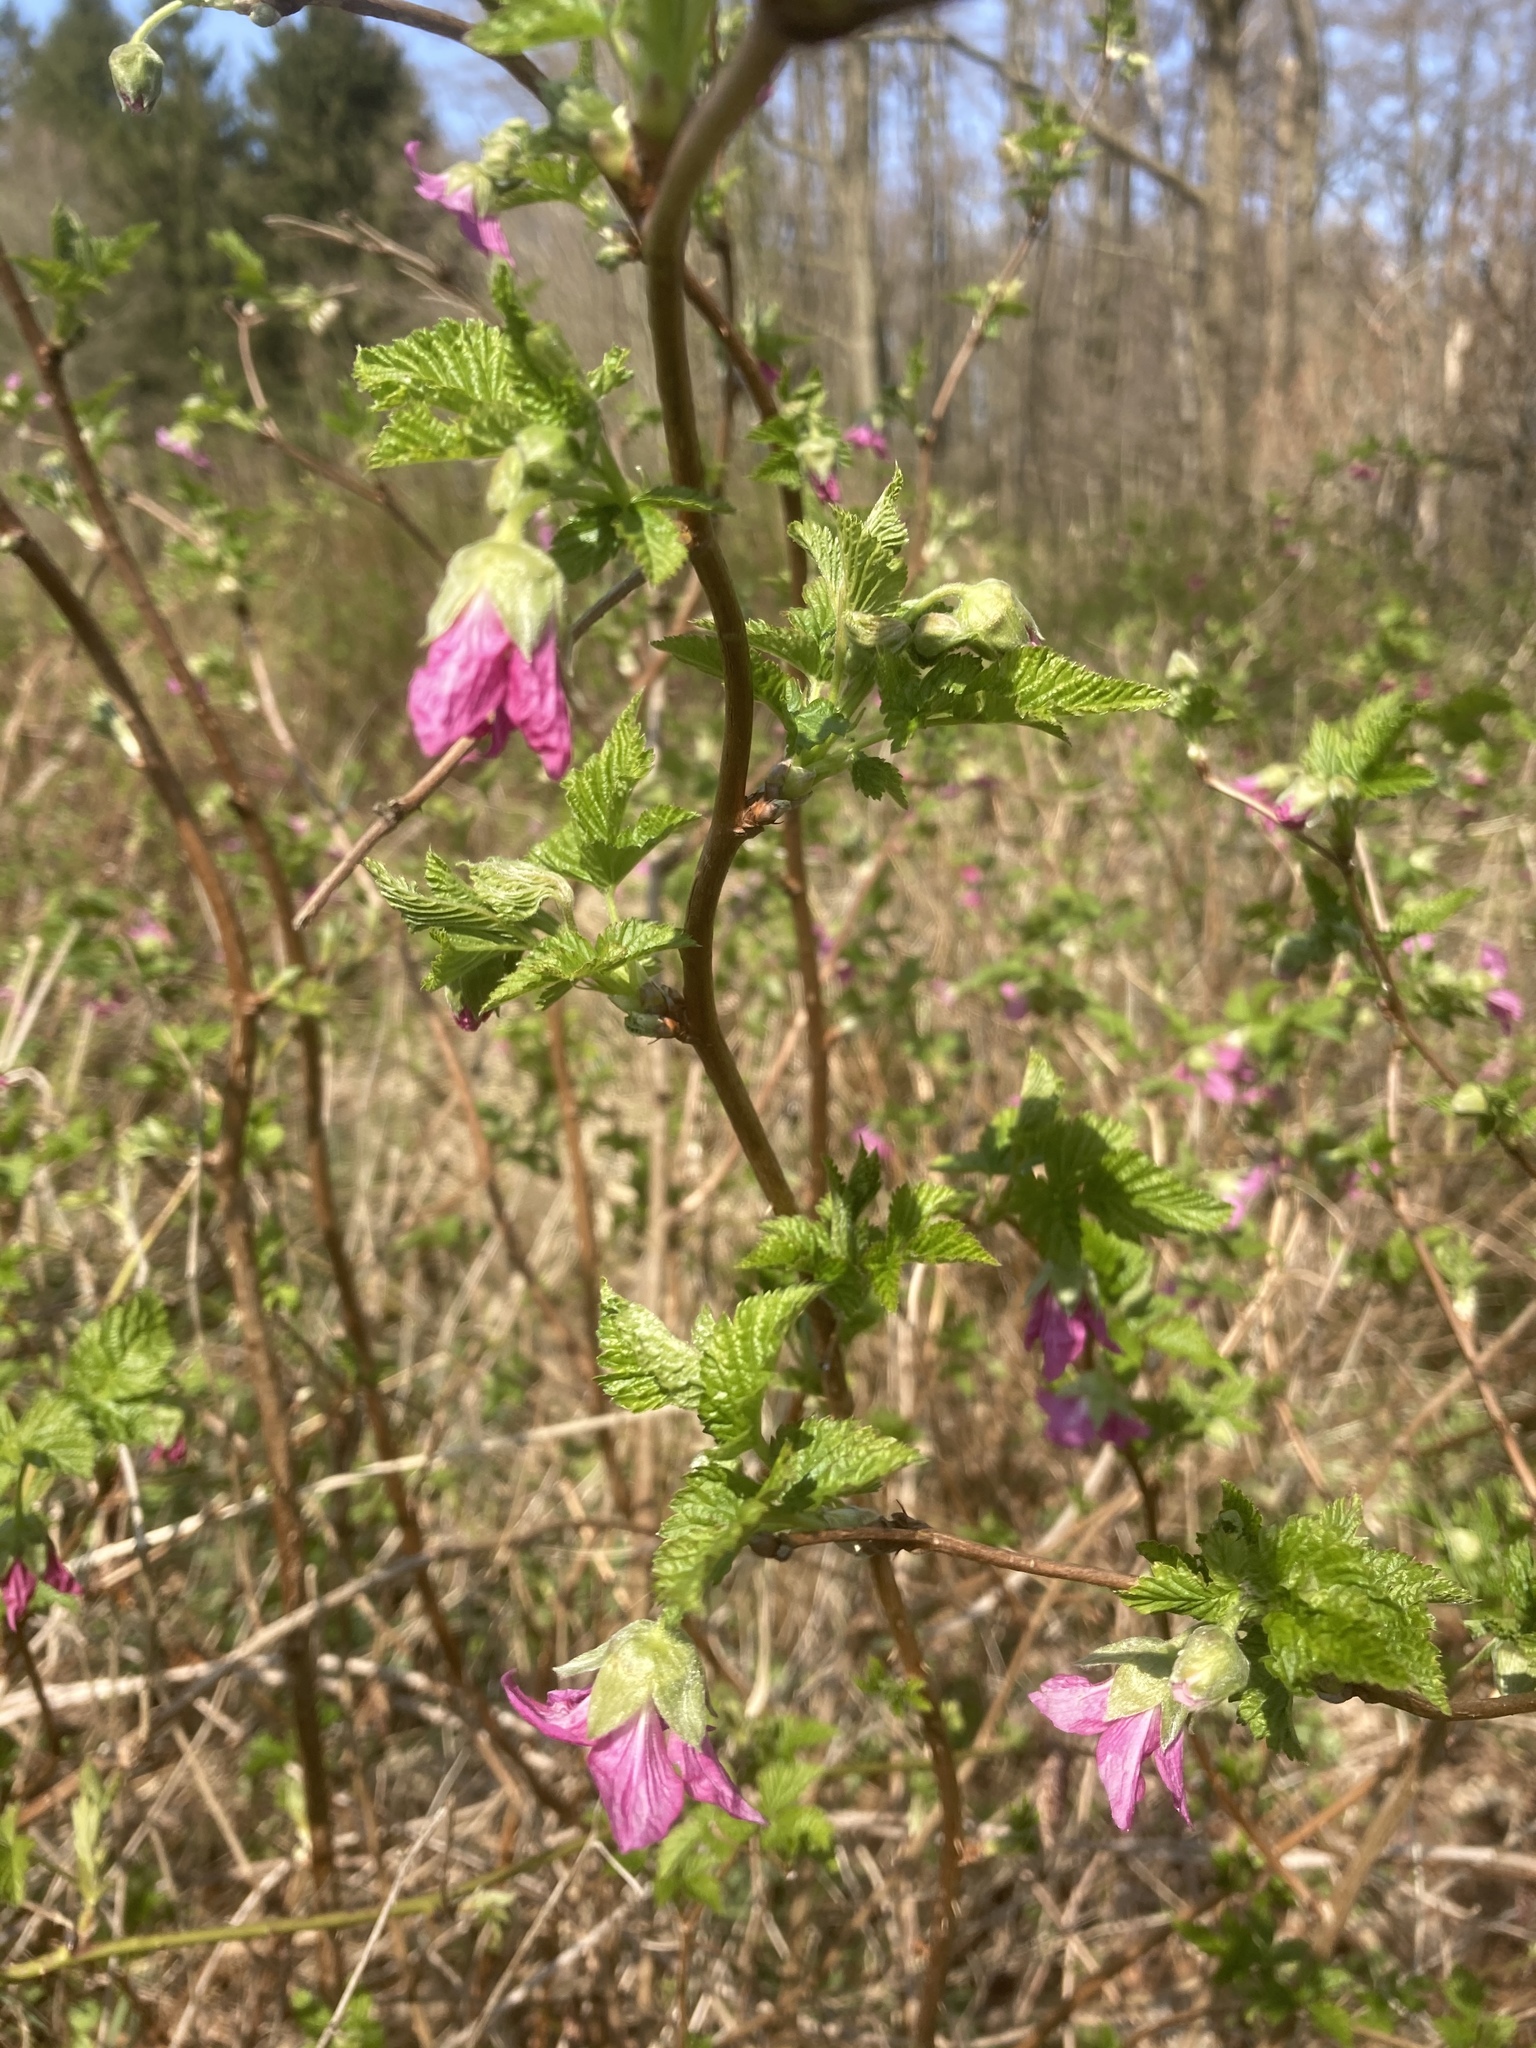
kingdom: Plantae
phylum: Tracheophyta
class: Magnoliopsida
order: Rosales
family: Rosaceae
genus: Rubus
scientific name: Rubus spectabilis
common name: Salmonberry
